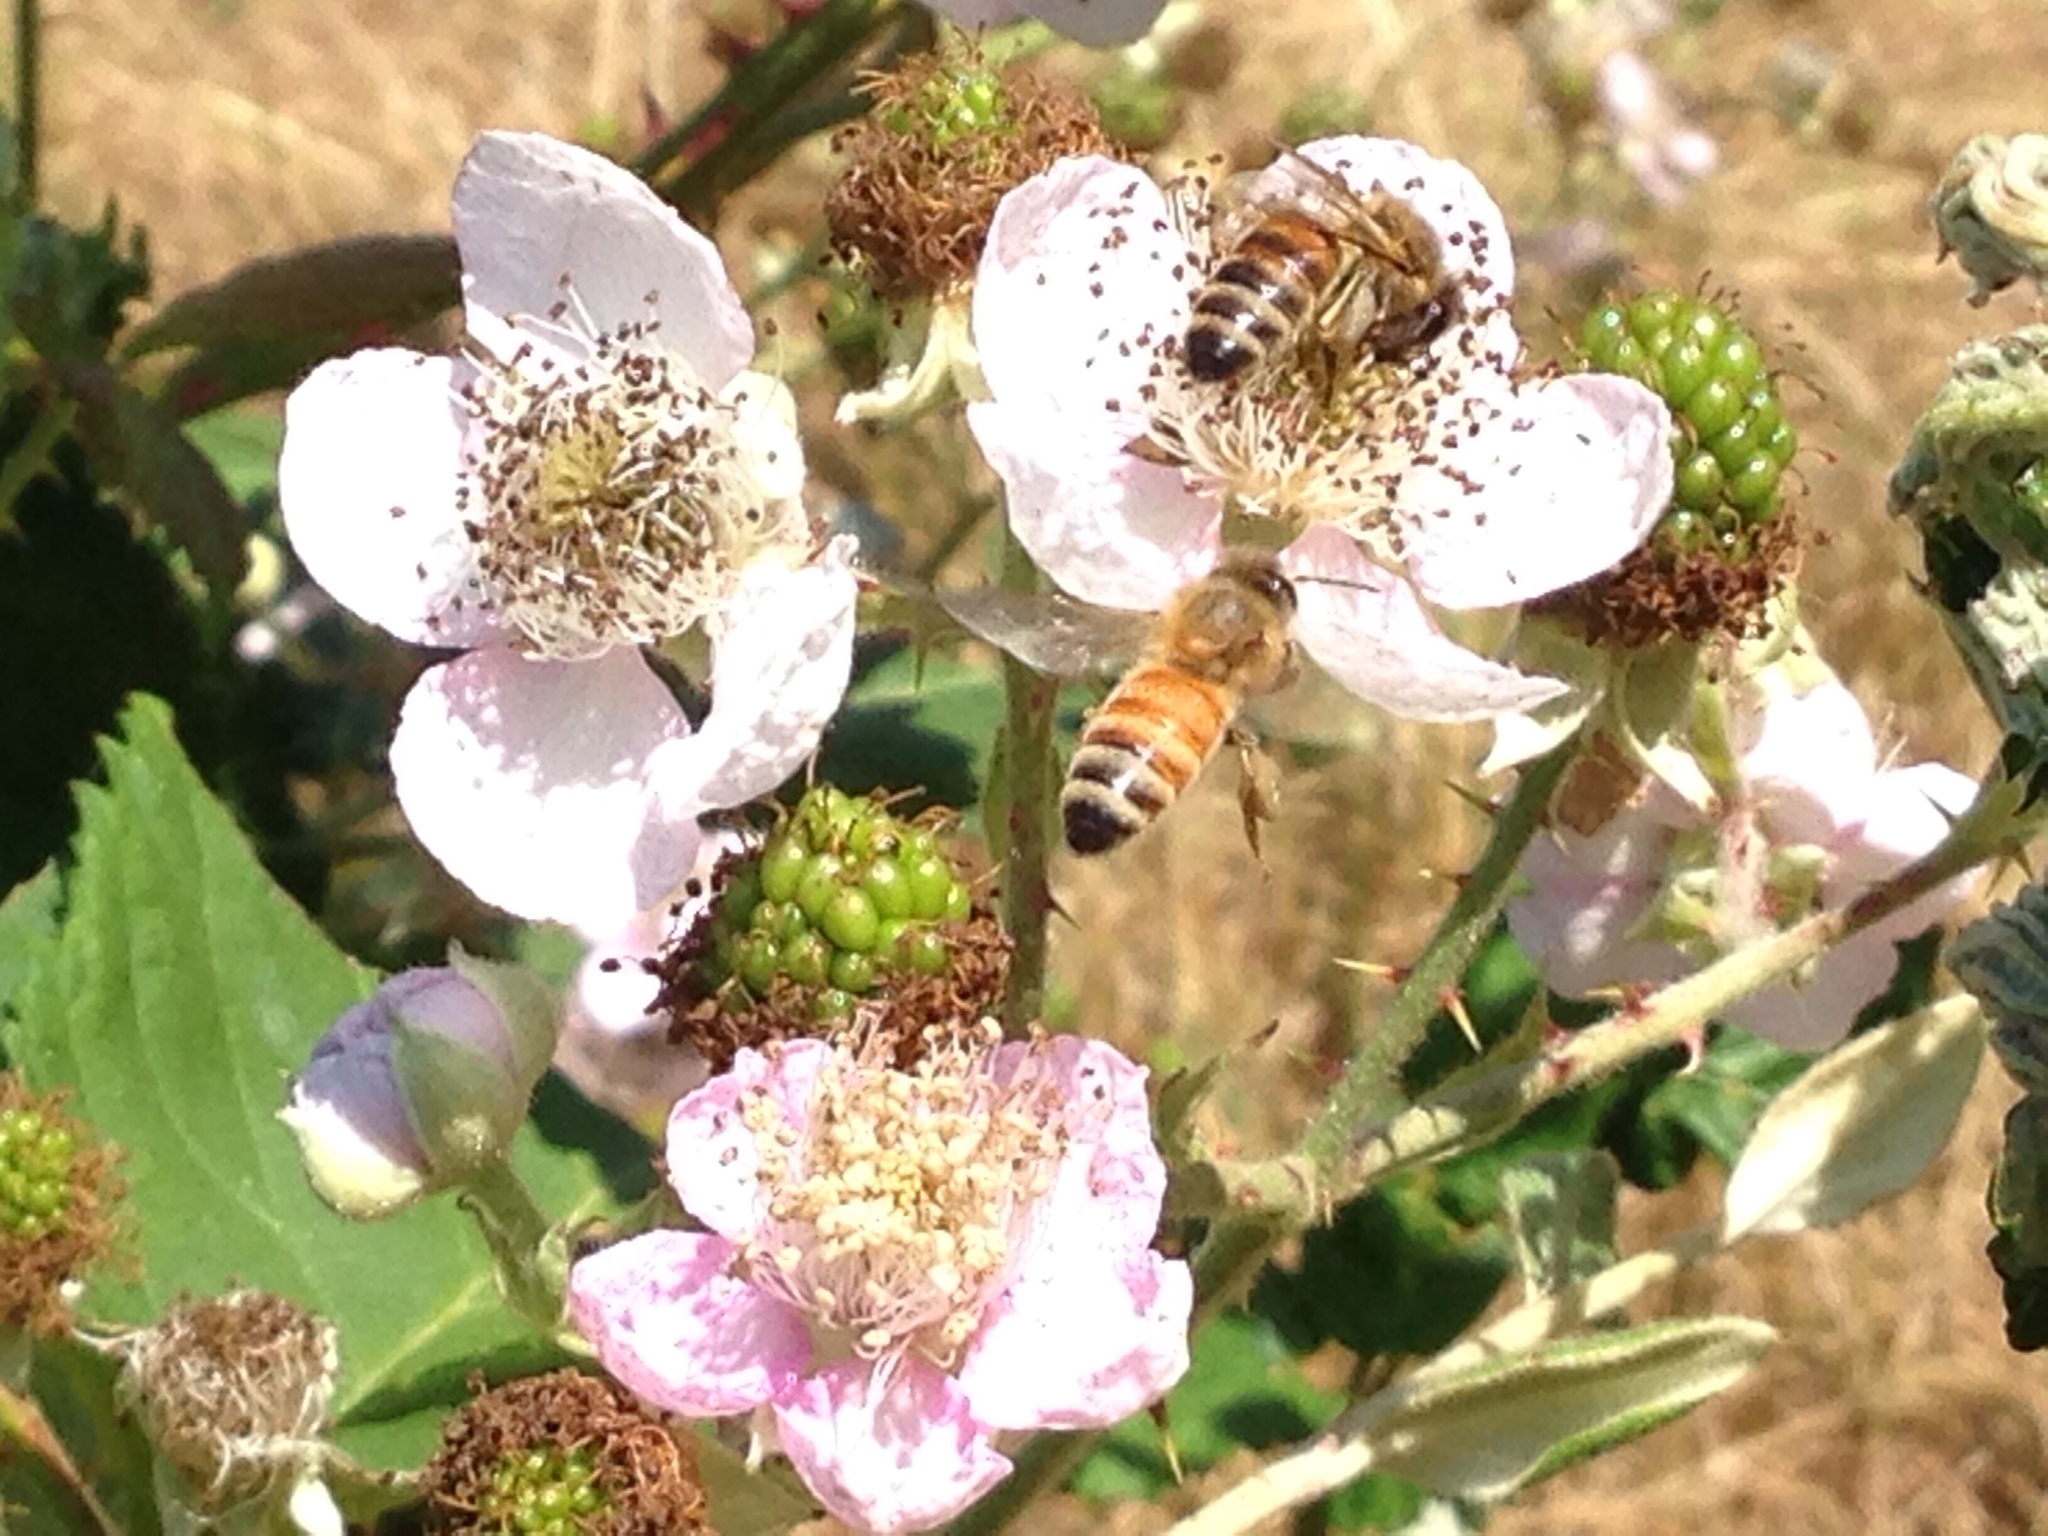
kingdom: Animalia
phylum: Arthropoda
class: Insecta
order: Hymenoptera
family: Apidae
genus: Apis
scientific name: Apis mellifera
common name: Honey bee
